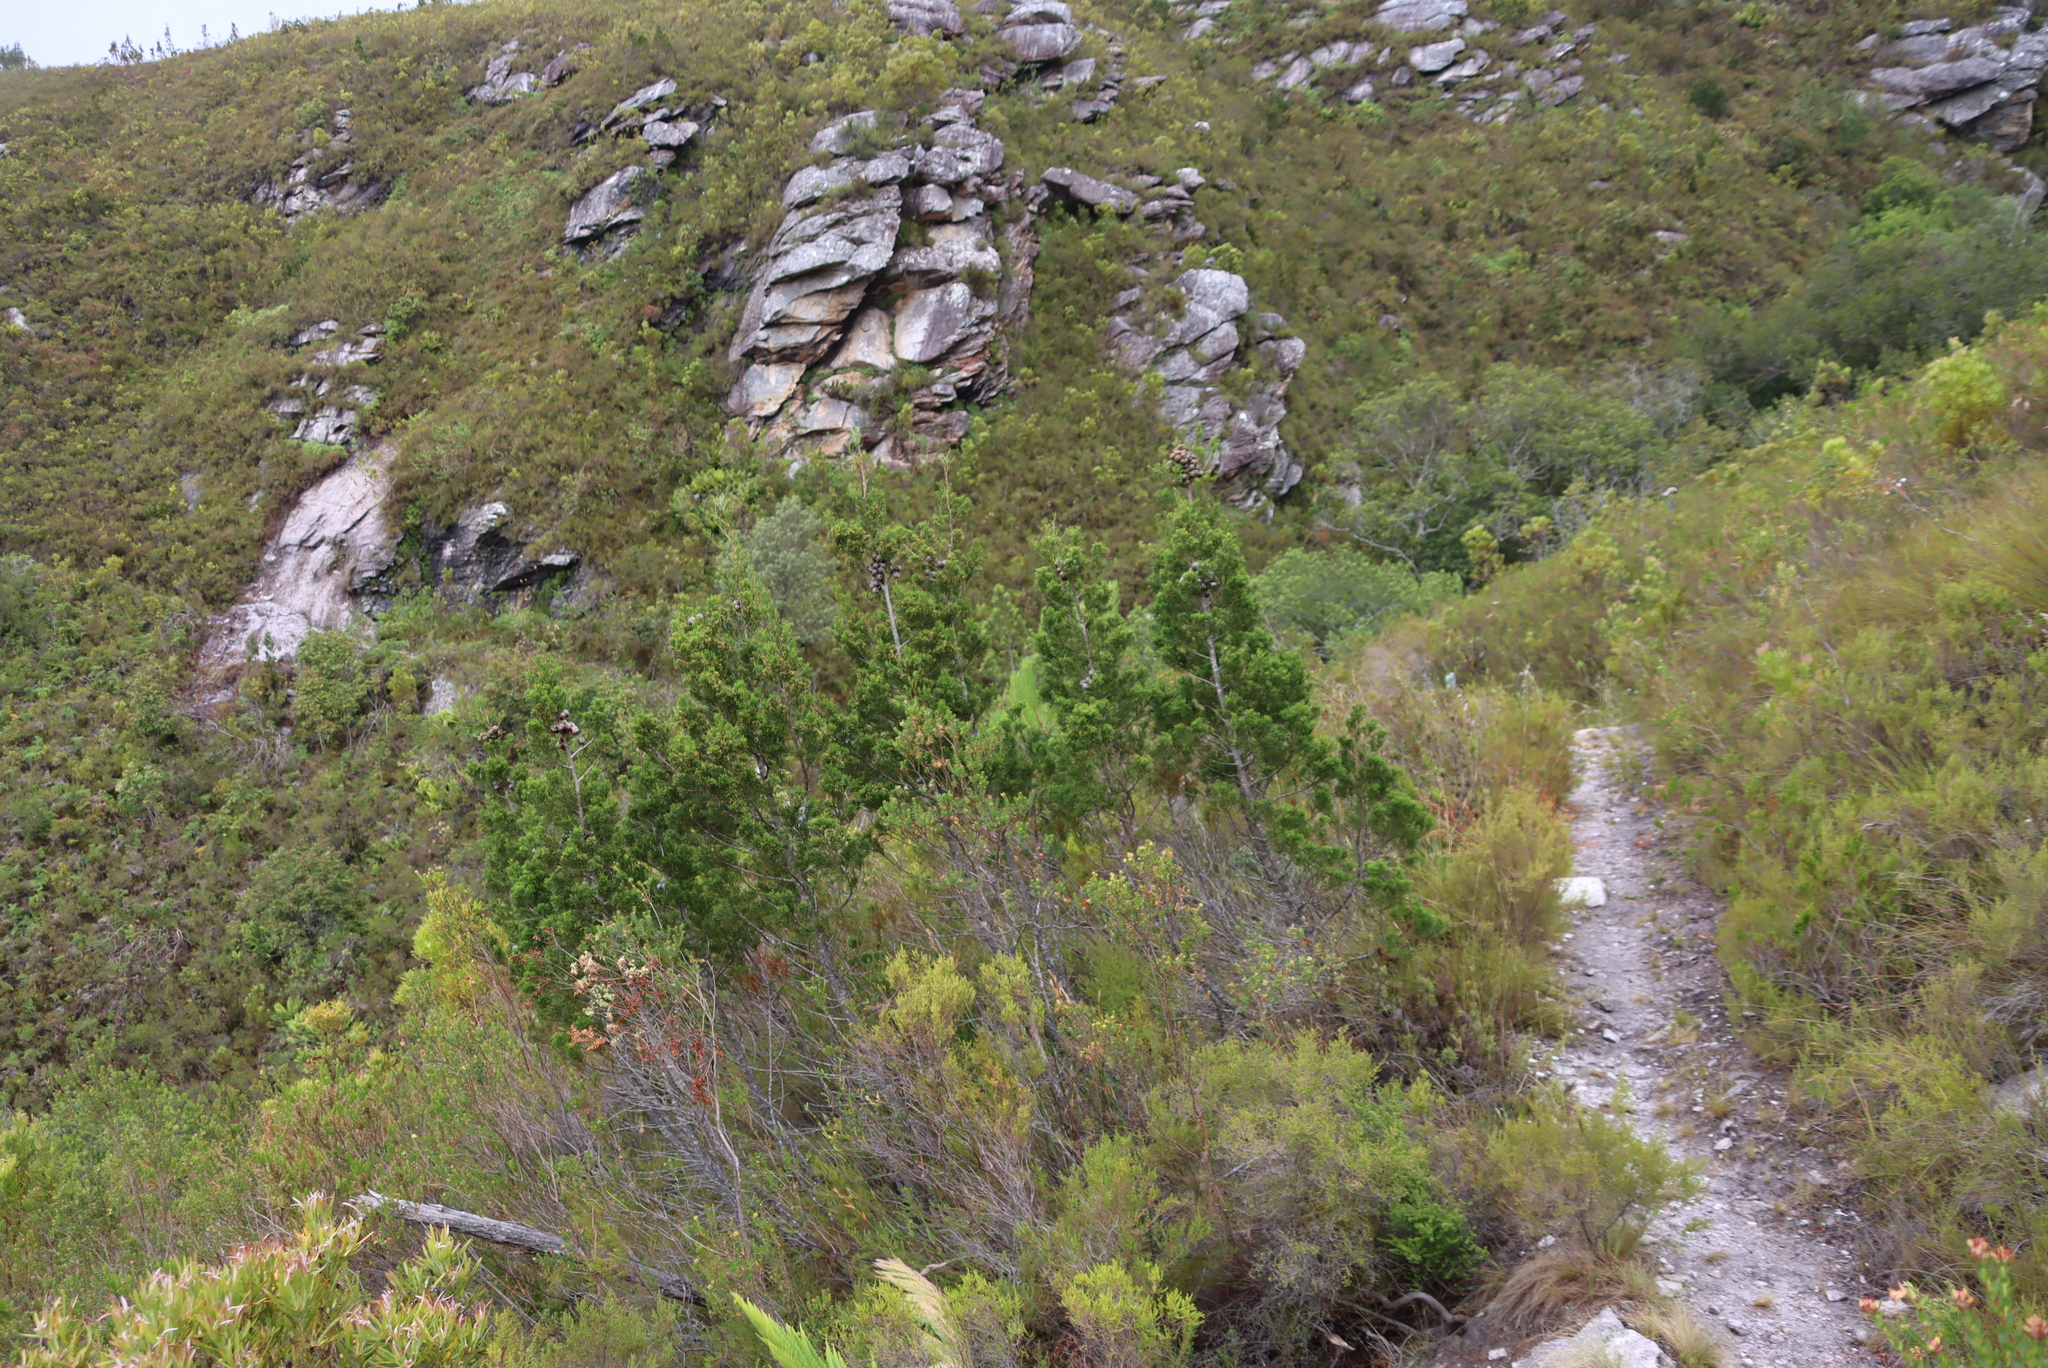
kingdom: Plantae
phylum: Tracheophyta
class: Pinopsida
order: Pinales
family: Cupressaceae
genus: Widdringtonia
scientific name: Widdringtonia nodiflora
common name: Cape cypress
